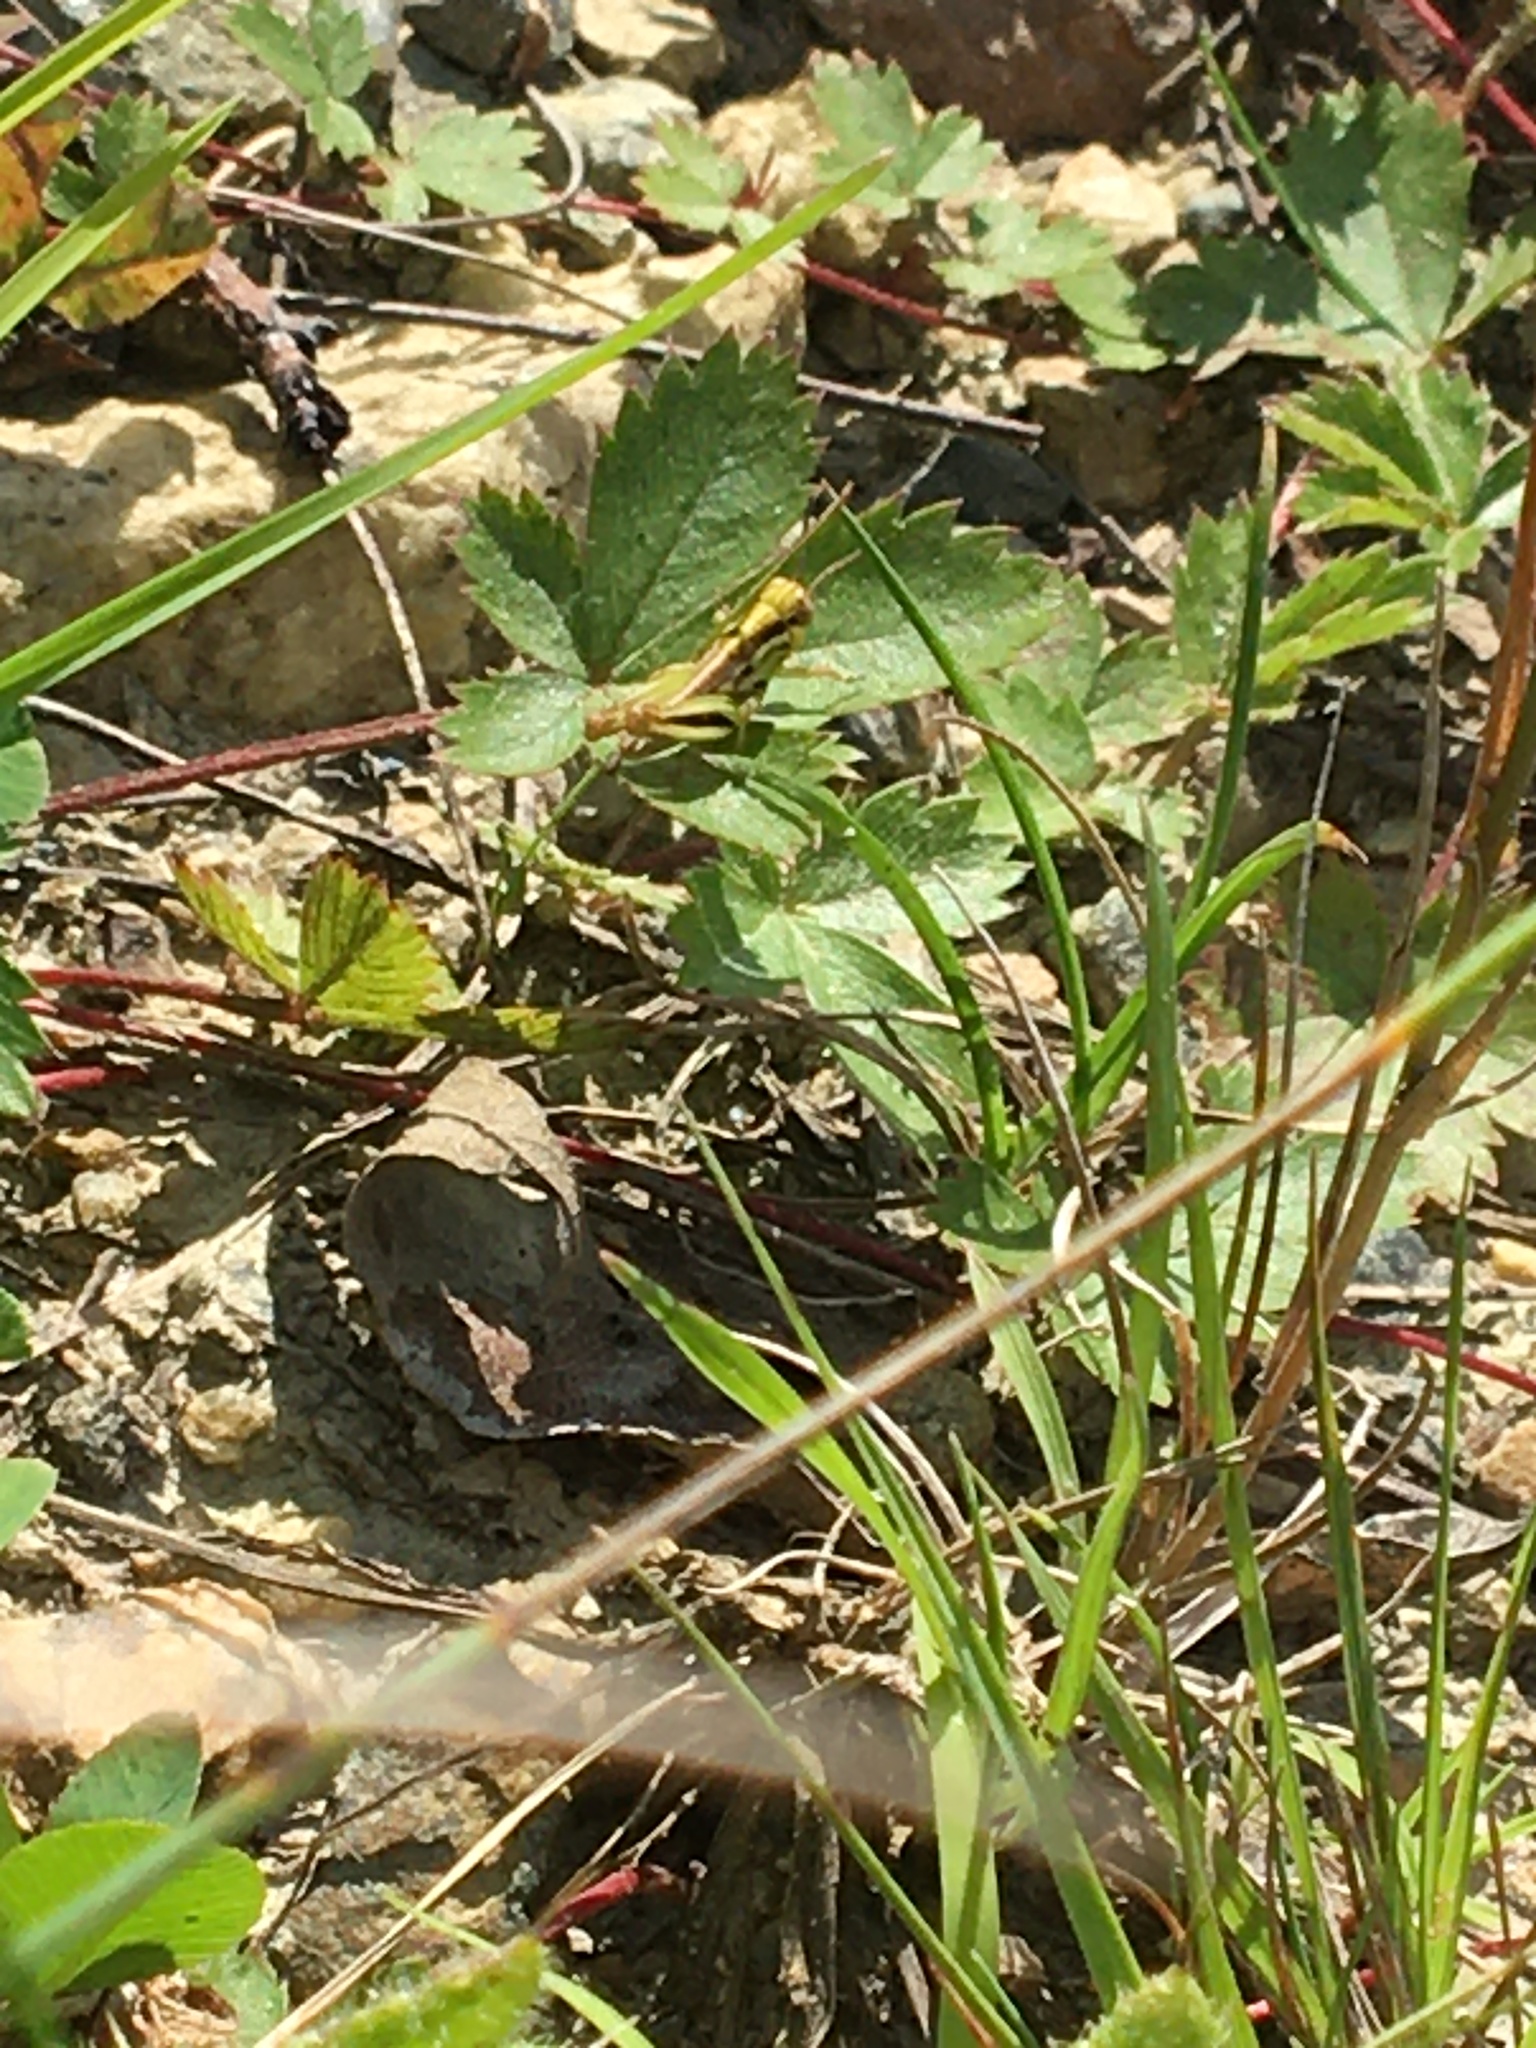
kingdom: Animalia
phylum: Arthropoda
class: Insecta
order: Orthoptera
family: Acrididae
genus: Melanoplus
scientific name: Melanoplus
